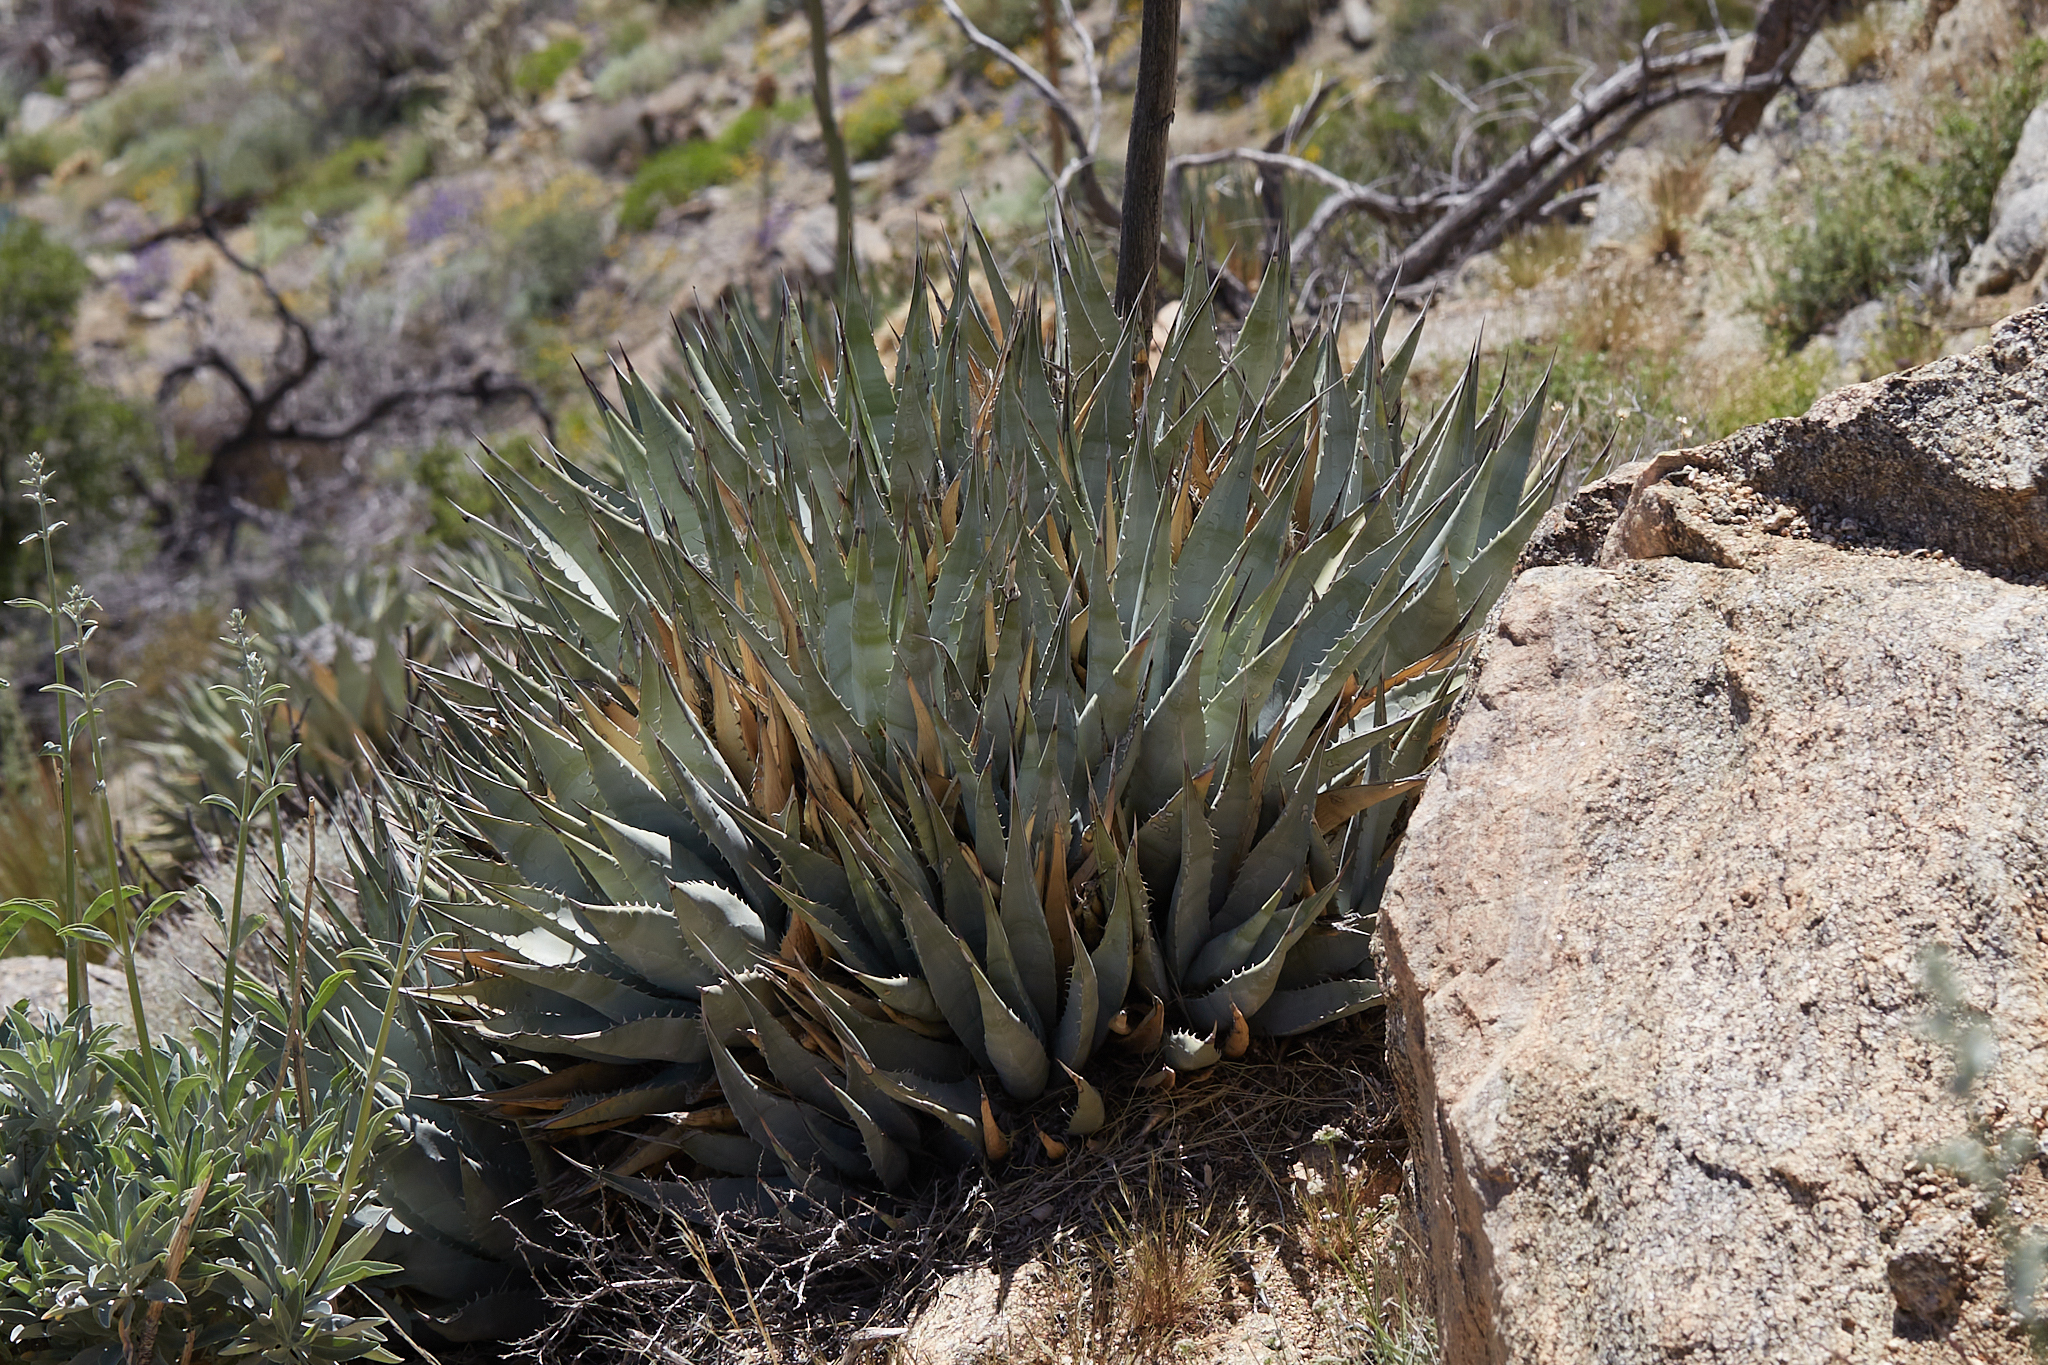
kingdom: Plantae
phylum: Tracheophyta
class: Liliopsida
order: Asparagales
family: Asparagaceae
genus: Agave
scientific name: Agave deserti
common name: Desert agave
